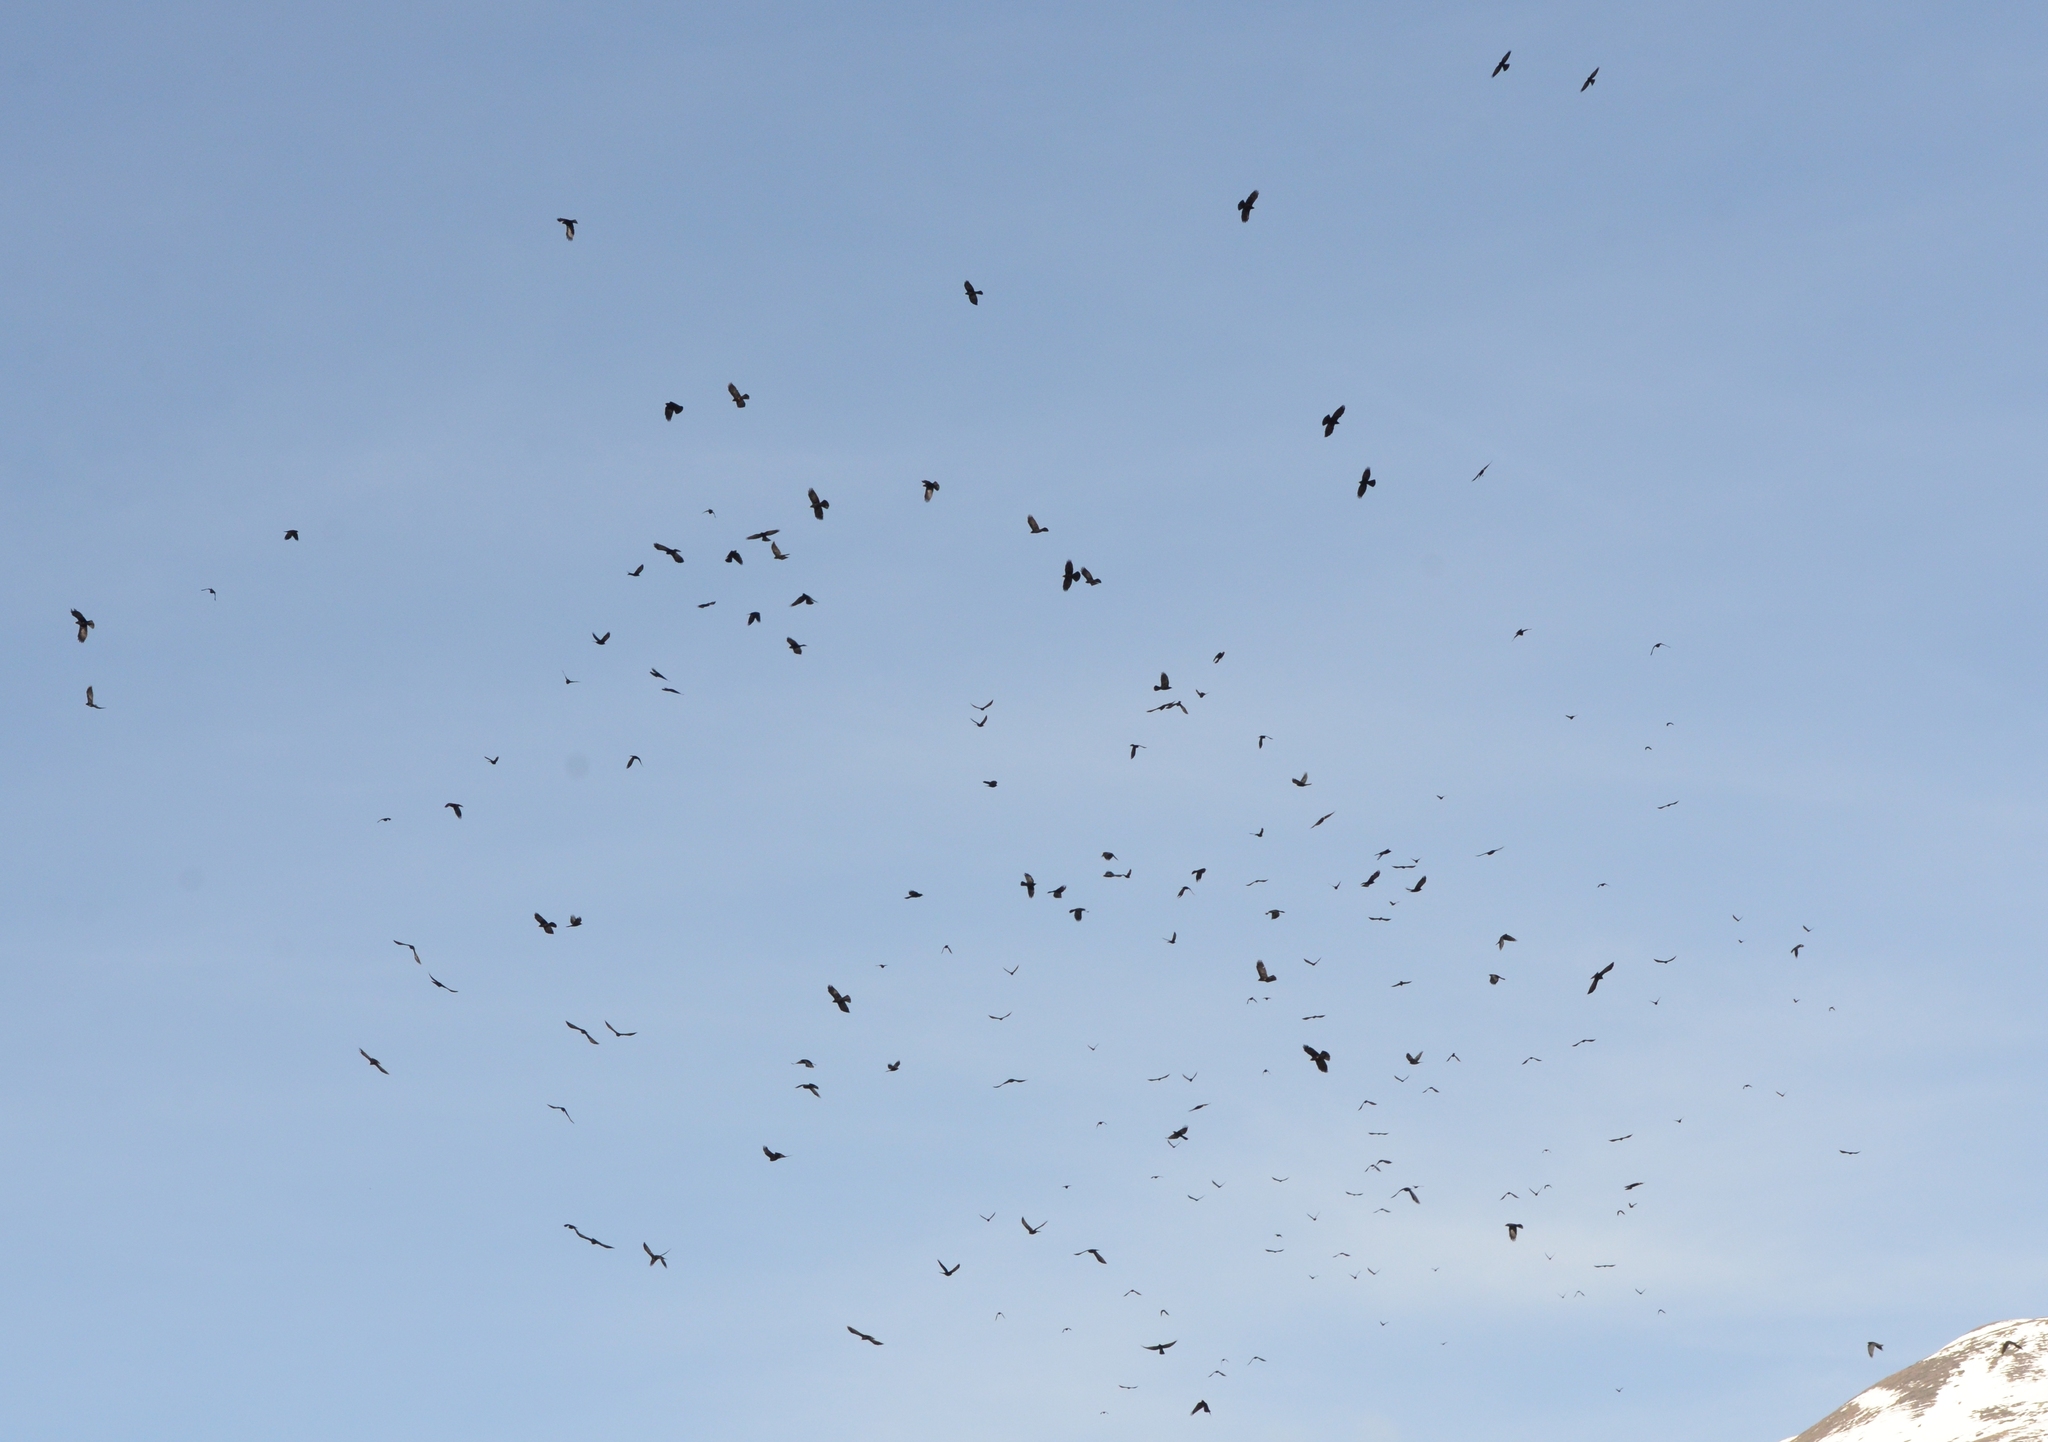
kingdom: Animalia
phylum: Chordata
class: Aves
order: Passeriformes
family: Corvidae
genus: Pyrrhocorax
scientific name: Pyrrhocorax graculus
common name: Alpine chough
